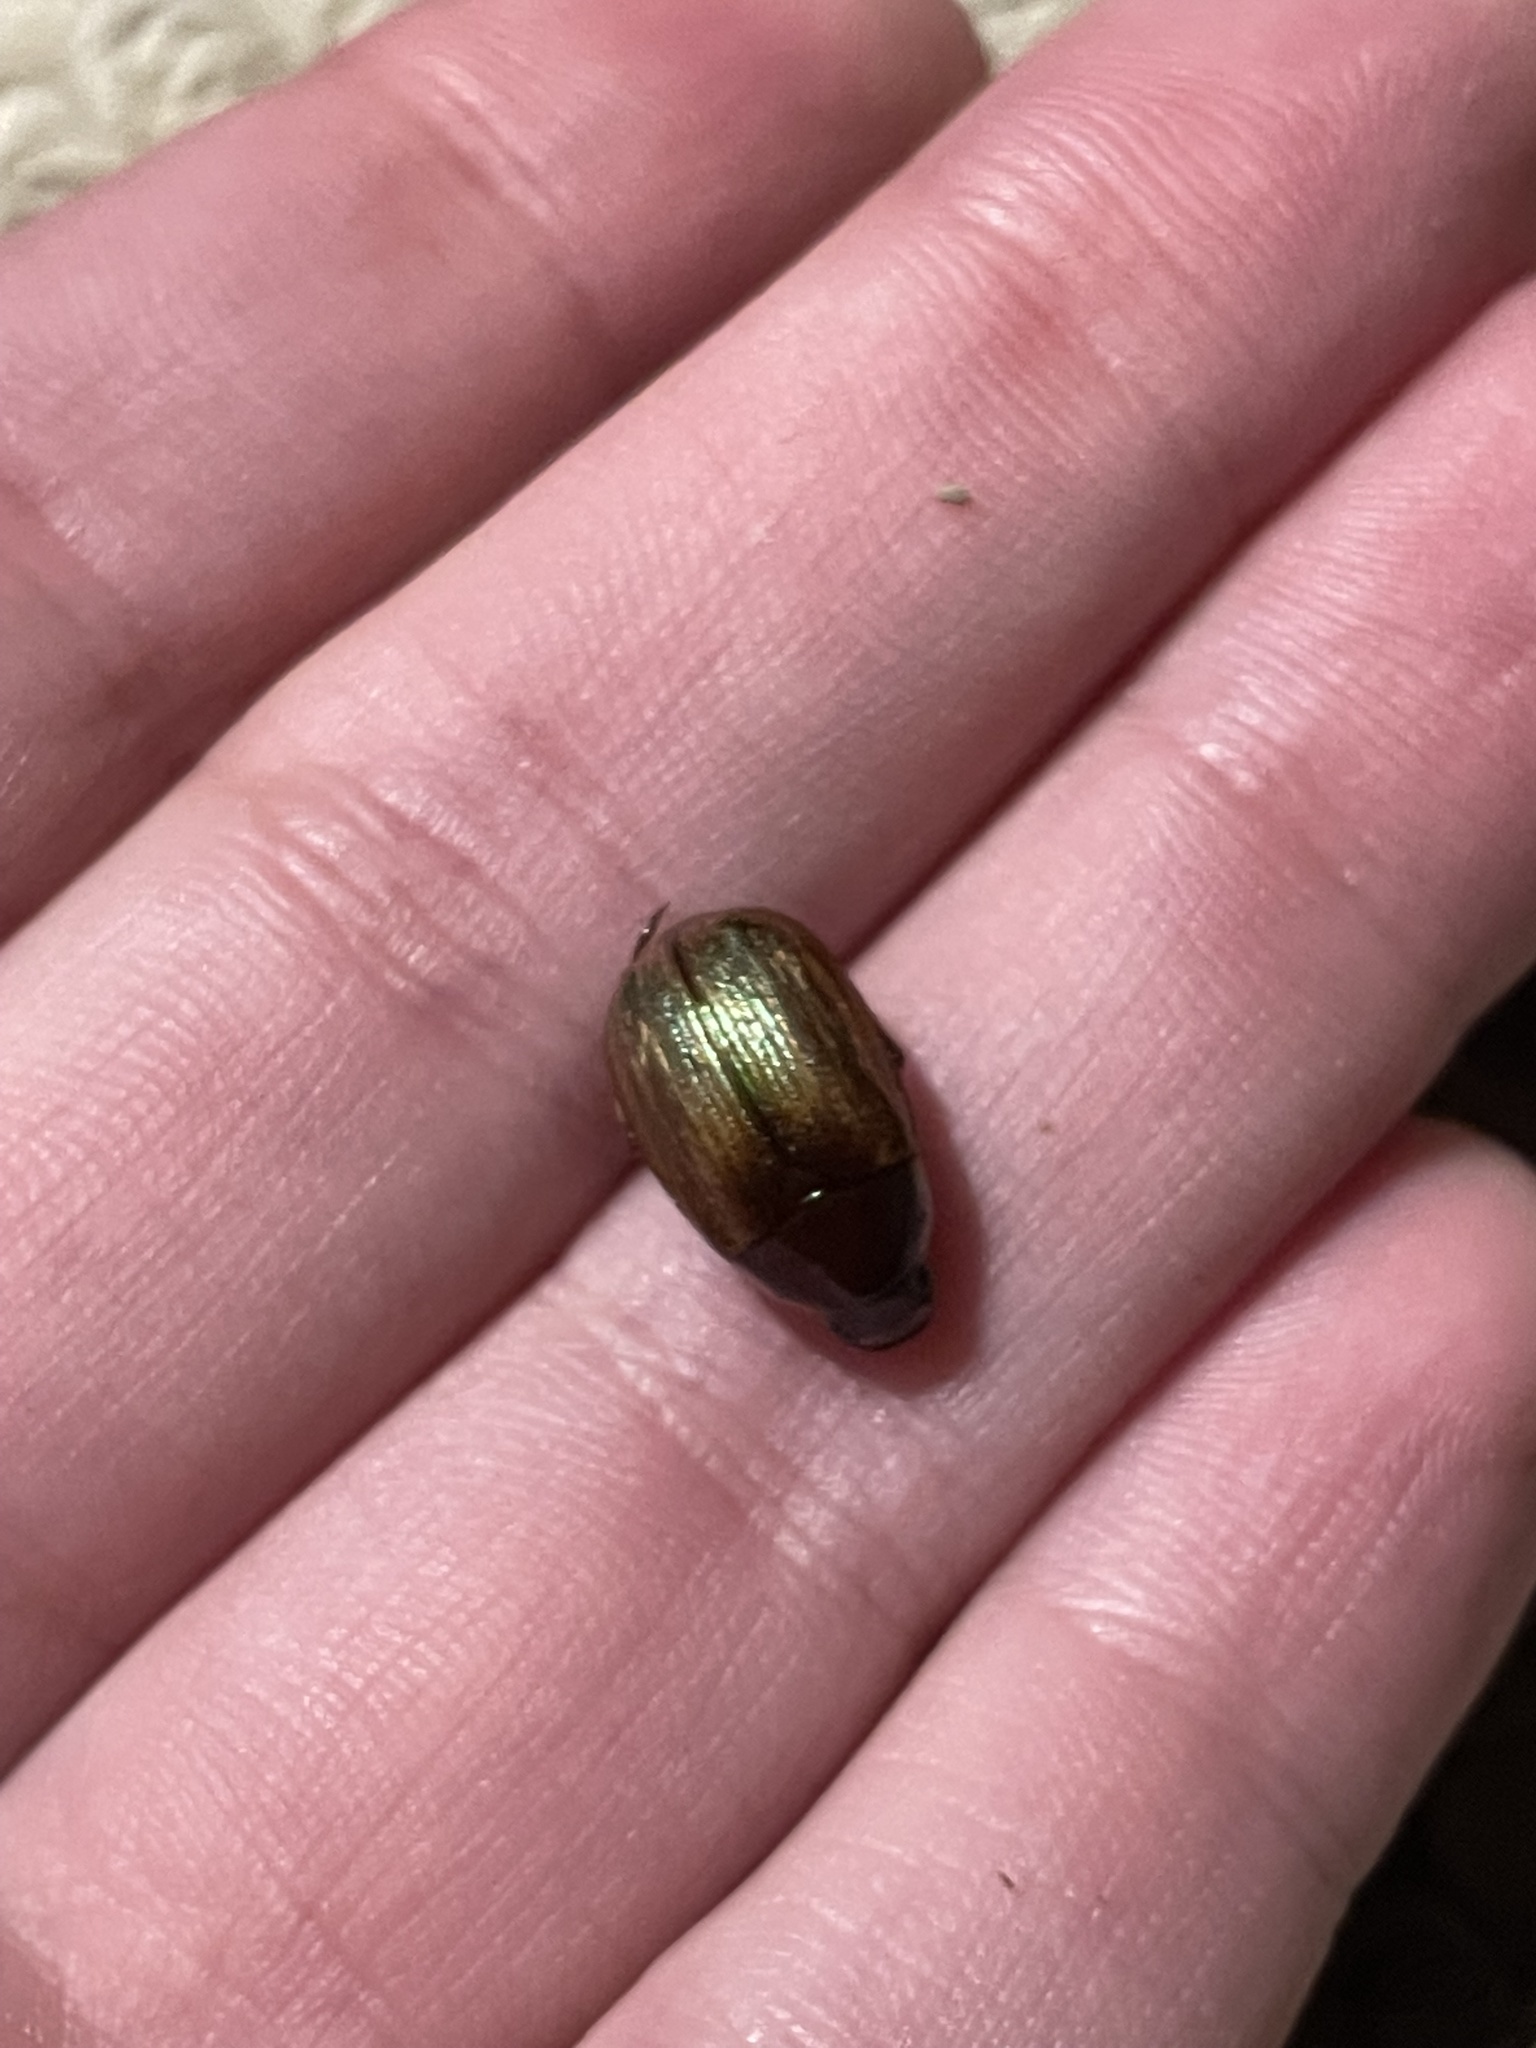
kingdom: Animalia
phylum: Arthropoda
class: Insecta
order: Coleoptera
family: Scarabaeidae
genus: Callistethus
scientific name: Callistethus marginatus
